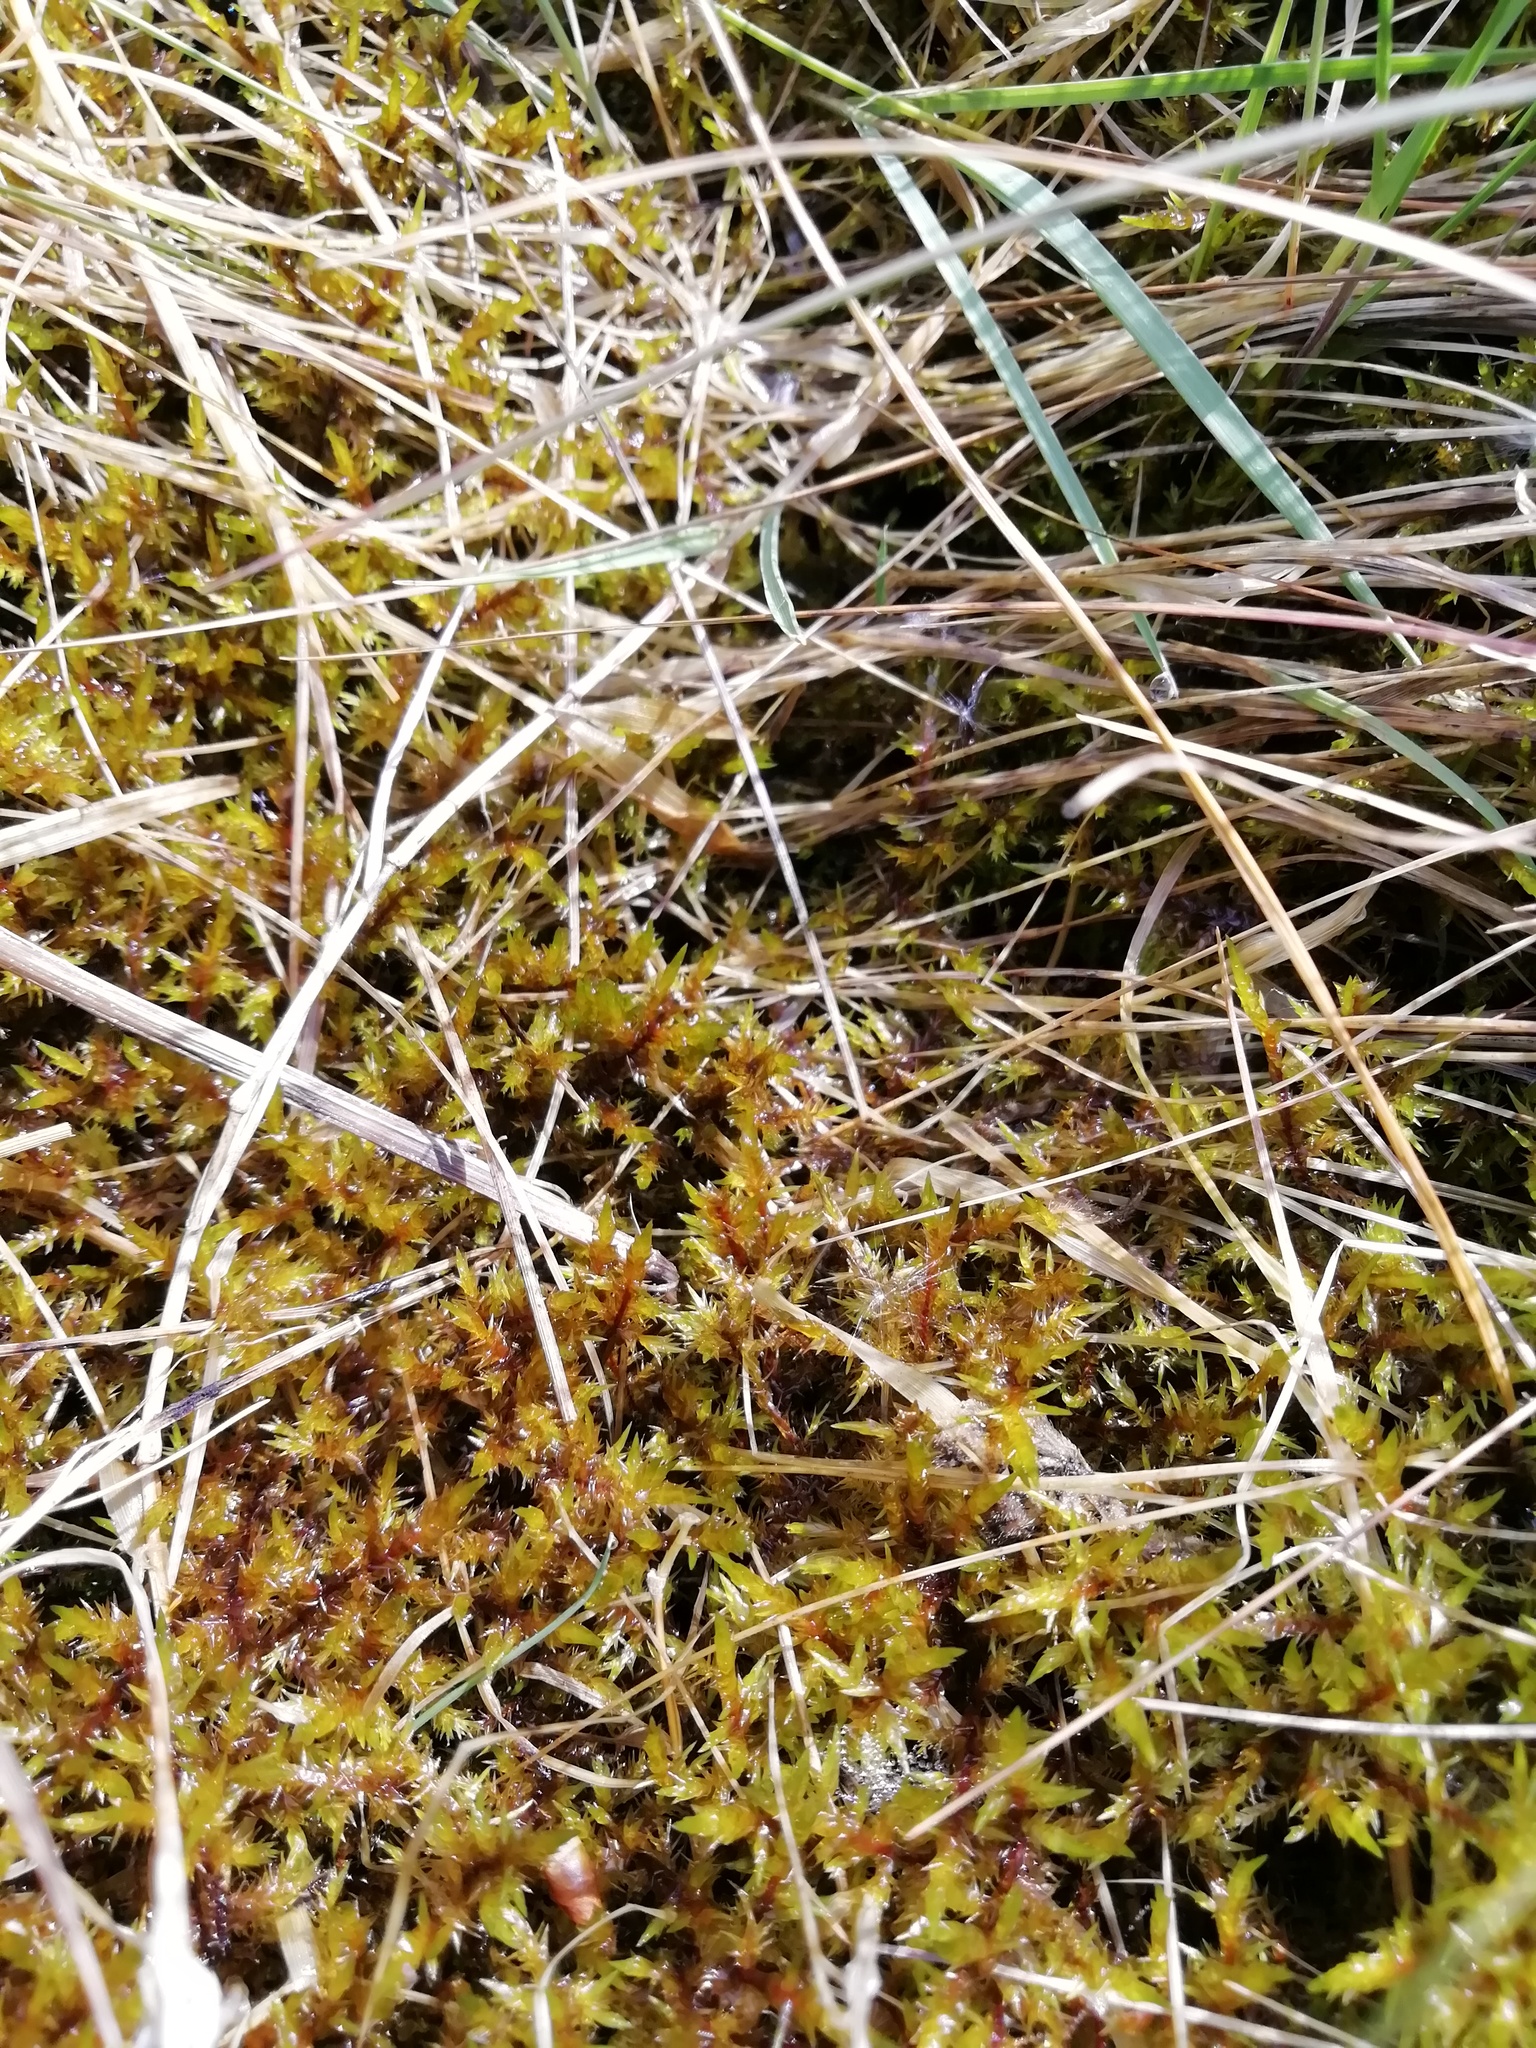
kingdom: Plantae
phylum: Bryophyta
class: Bryopsida
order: Hypnales
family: Pylaisiaceae
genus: Calliergonella
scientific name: Calliergonella cuspidata
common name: Common large wetland moss
